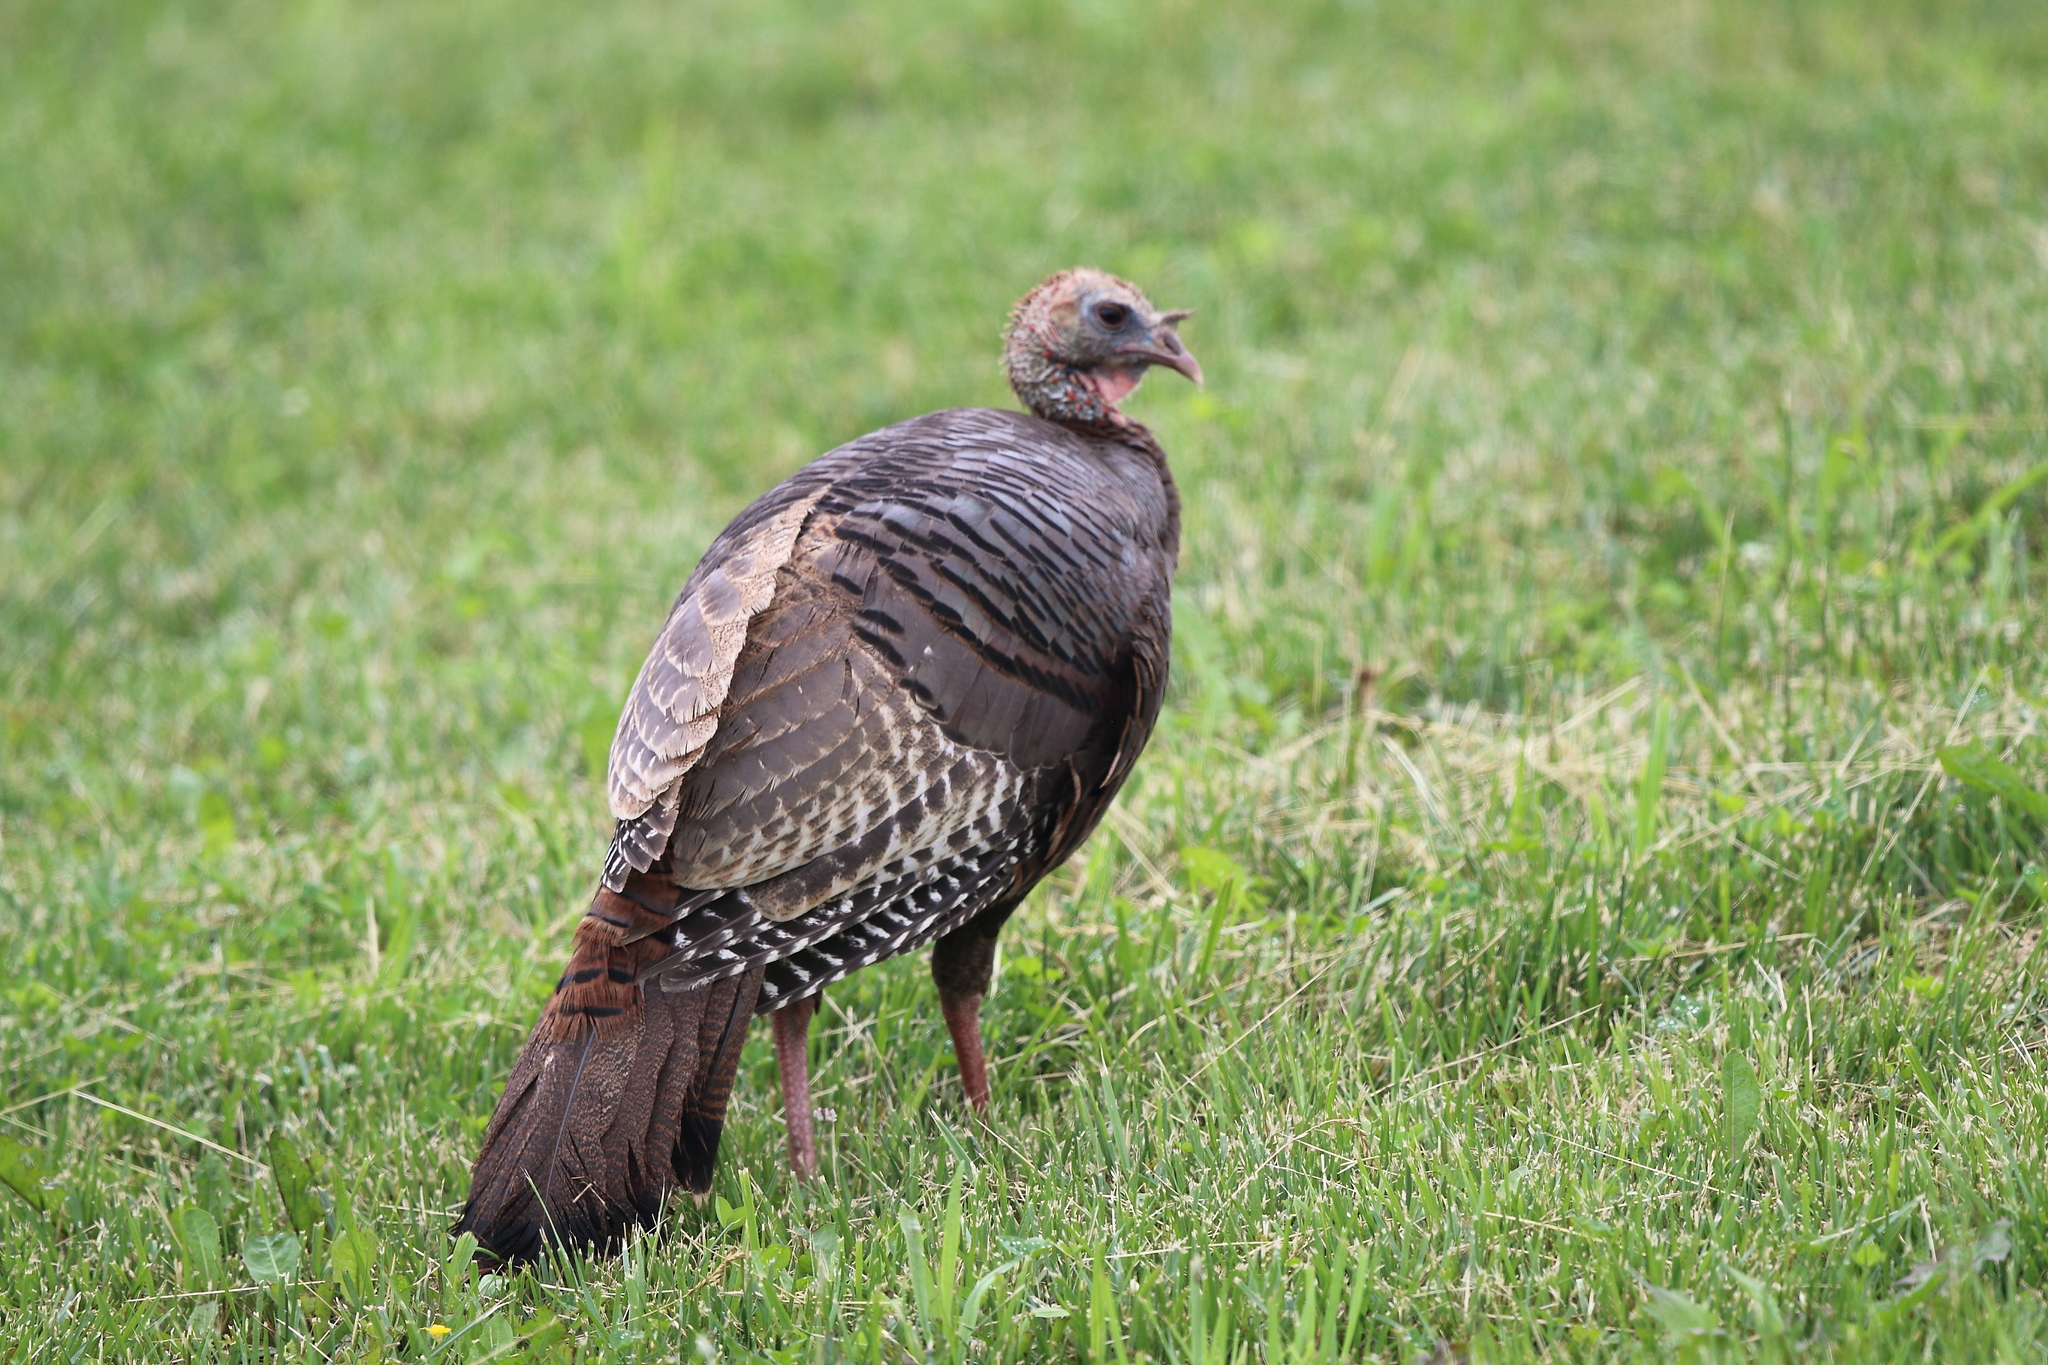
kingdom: Animalia
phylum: Chordata
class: Aves
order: Galliformes
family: Phasianidae
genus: Meleagris
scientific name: Meleagris gallopavo
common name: Wild turkey
